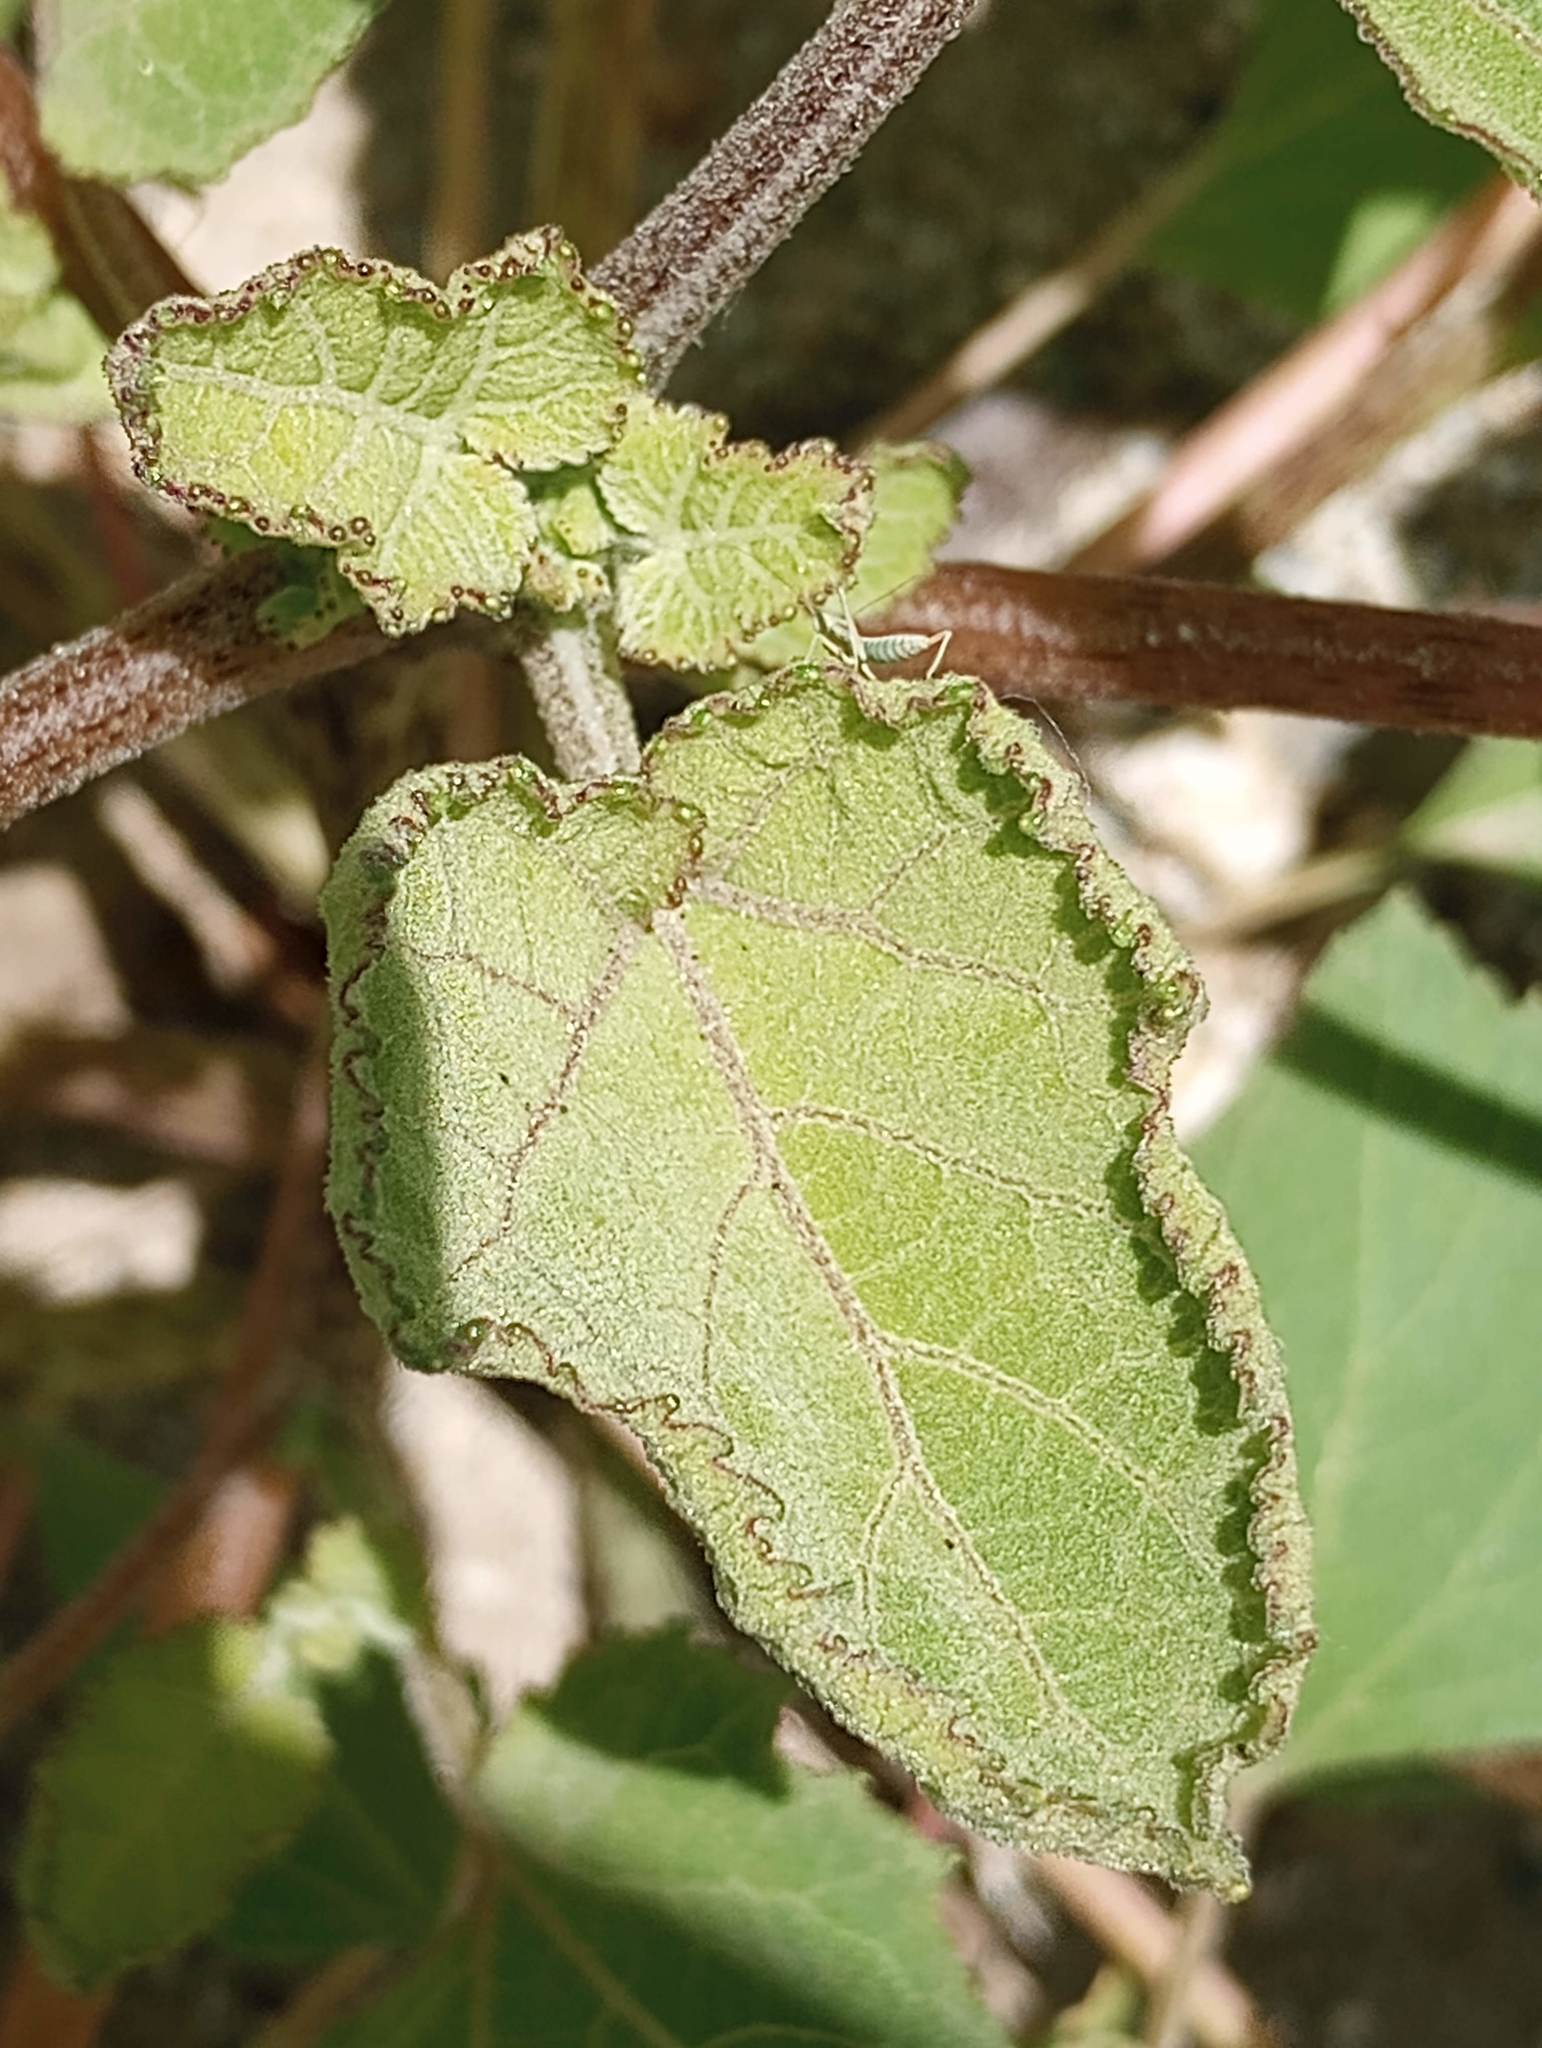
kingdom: Plantae
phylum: Tracheophyta
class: Magnoliopsida
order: Asterales
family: Asteraceae
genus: Xanthium
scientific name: Xanthium strumarium
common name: Rough cocklebur
